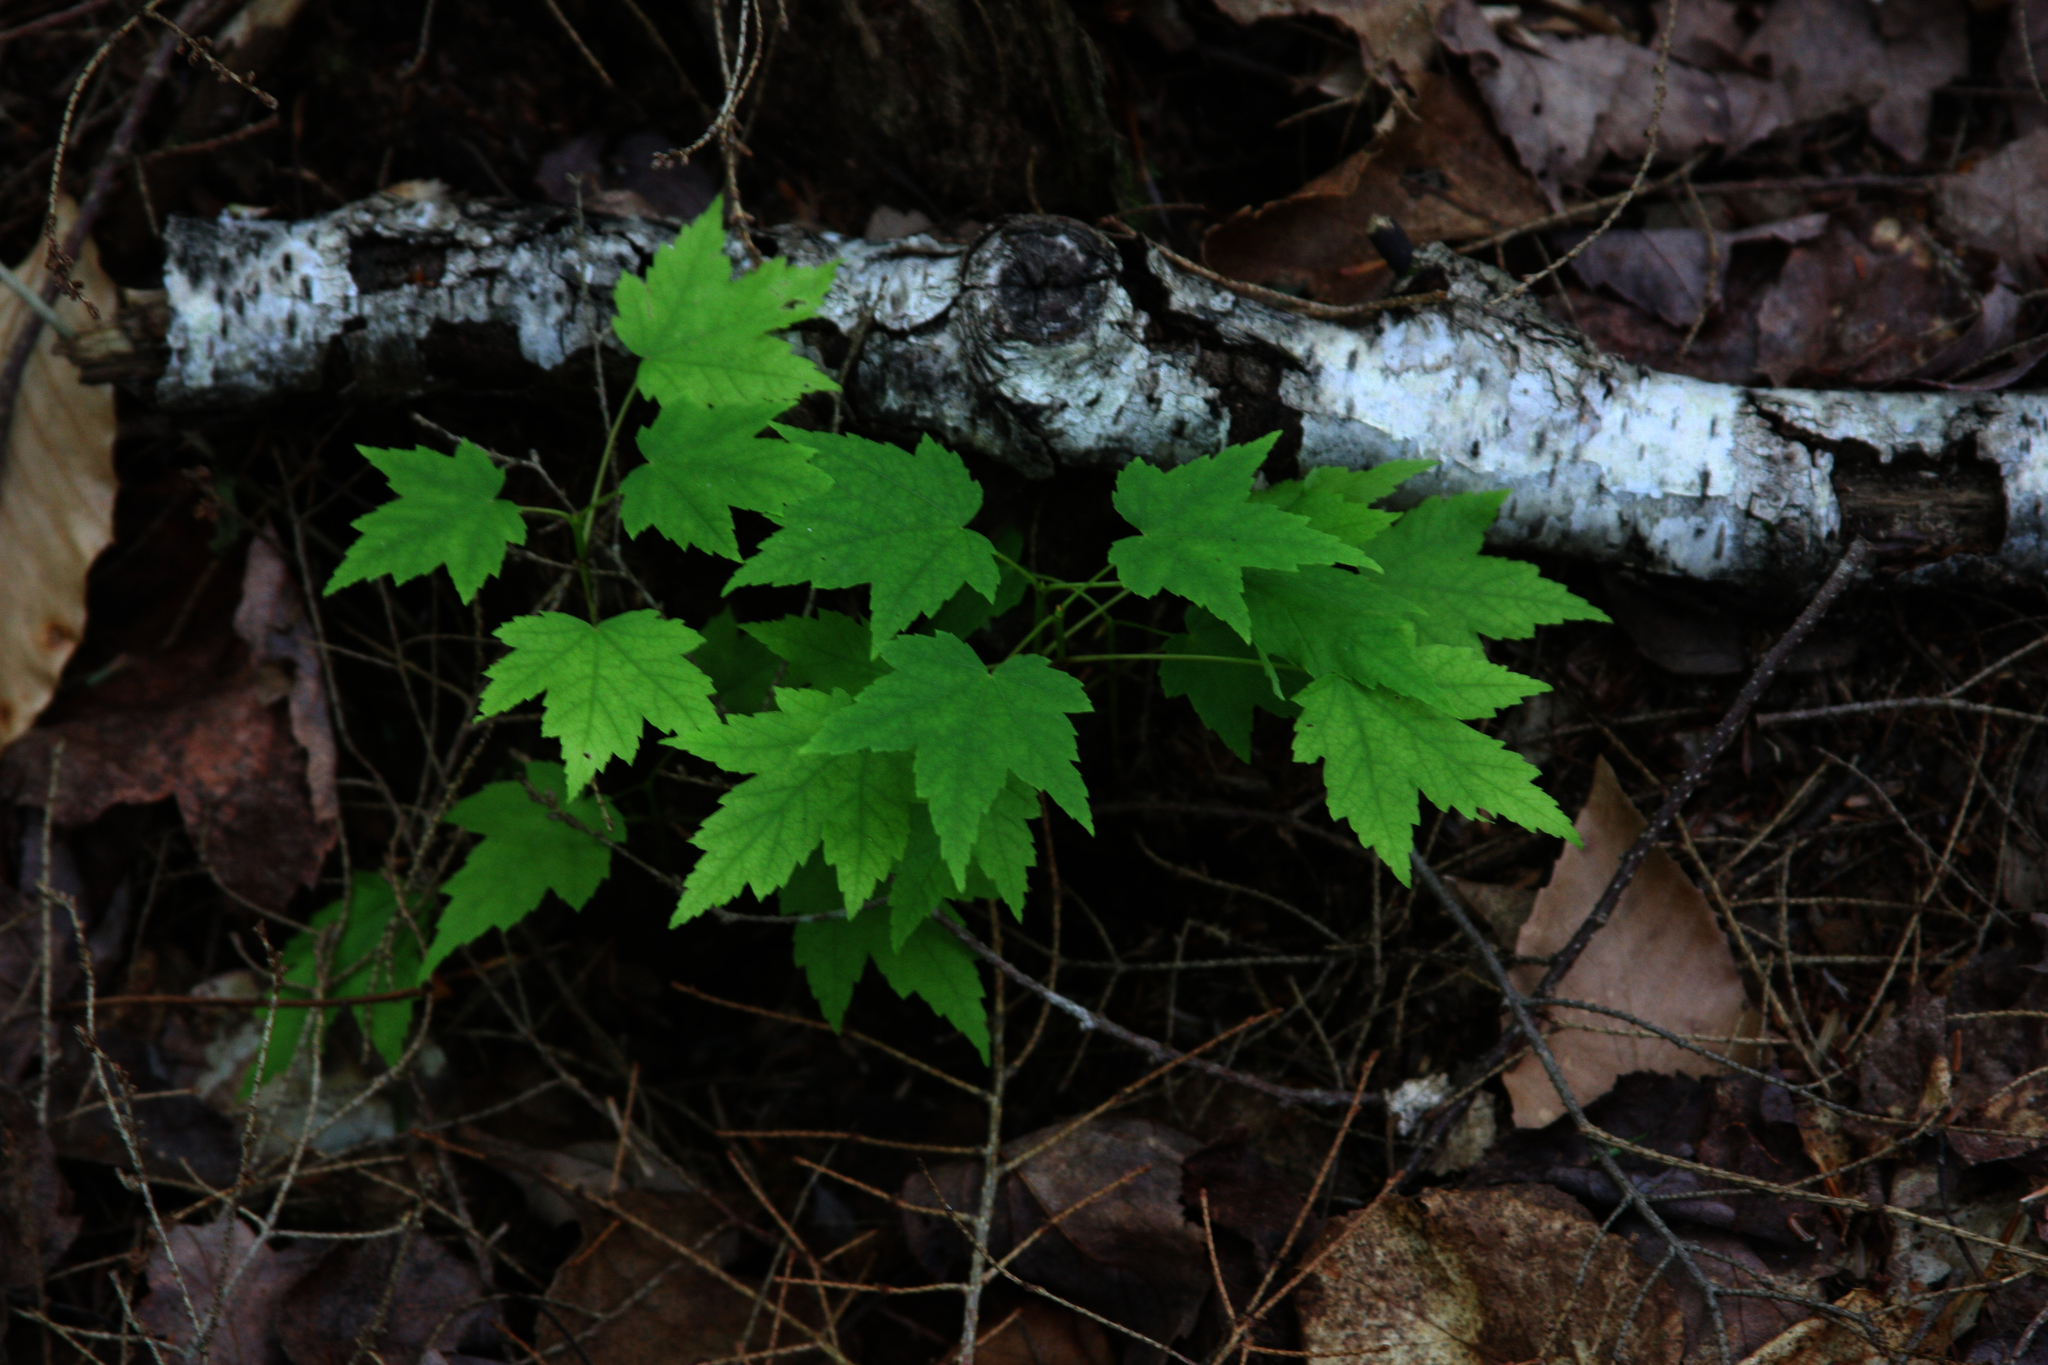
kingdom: Plantae
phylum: Tracheophyta
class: Magnoliopsida
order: Sapindales
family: Sapindaceae
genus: Acer
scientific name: Acer rubrum
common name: Red maple
